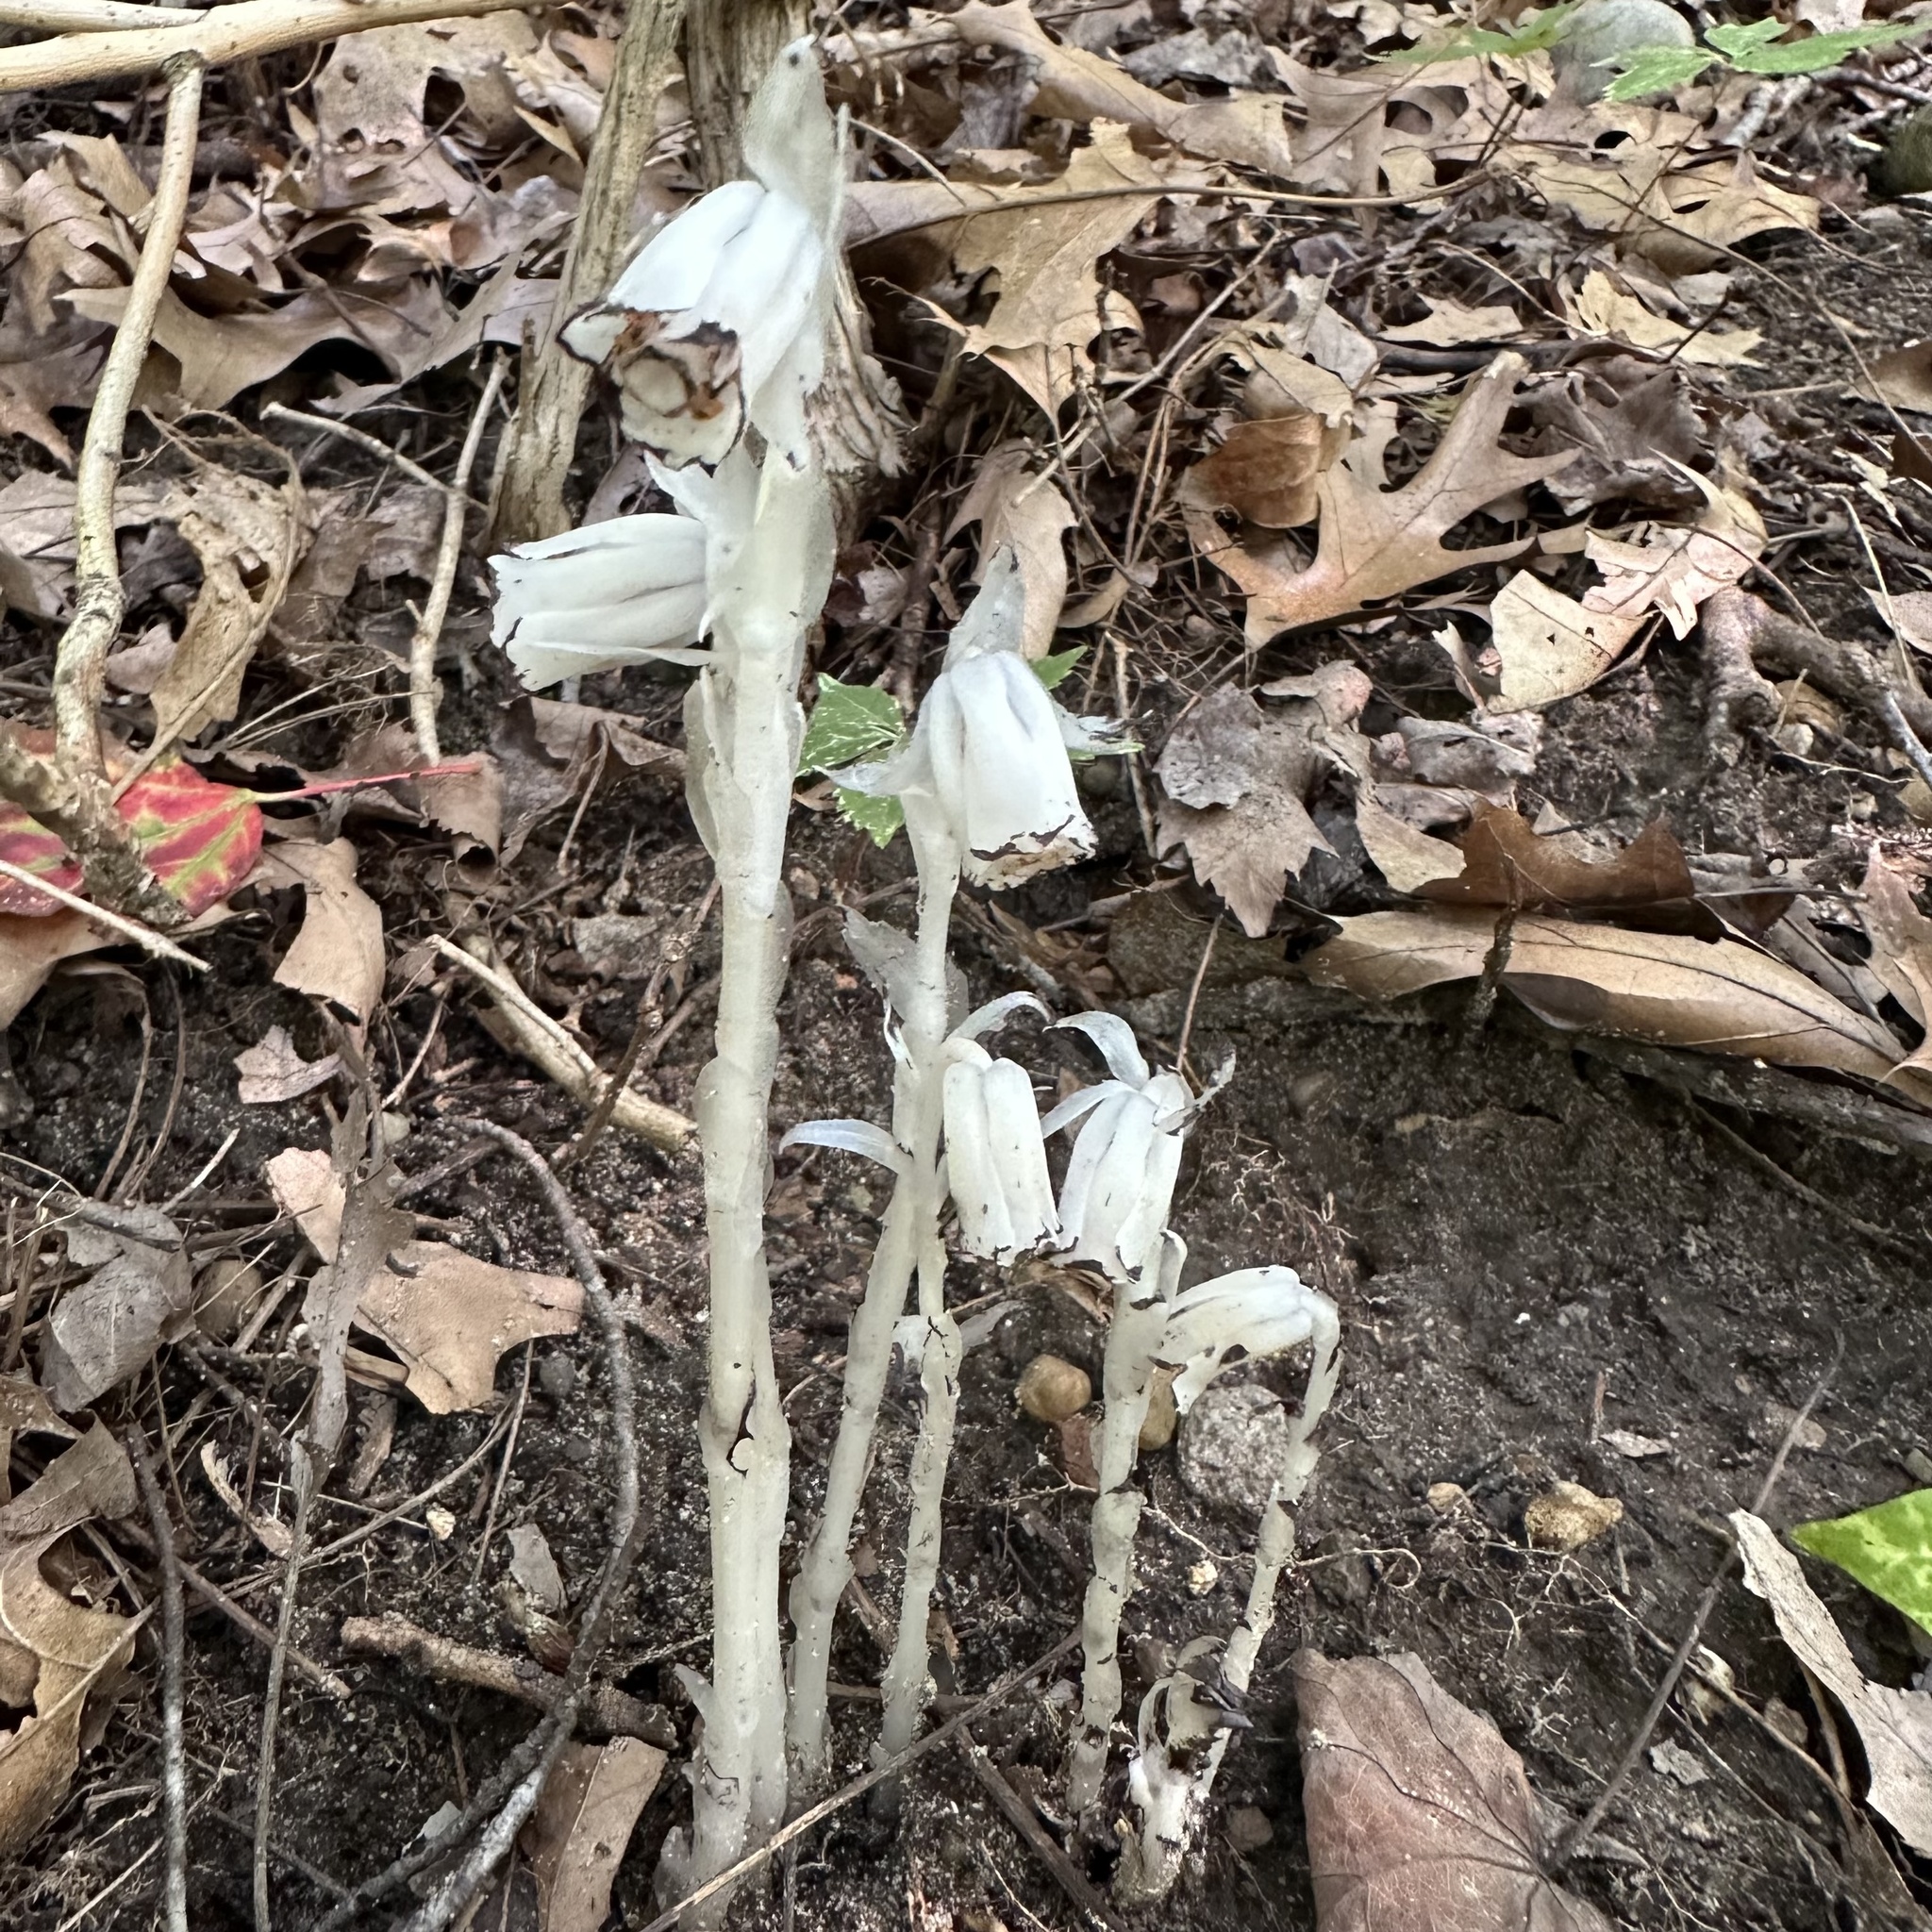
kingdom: Plantae
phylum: Tracheophyta
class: Magnoliopsida
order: Ericales
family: Ericaceae
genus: Monotropa
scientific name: Monotropa uniflora
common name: Convulsion root
